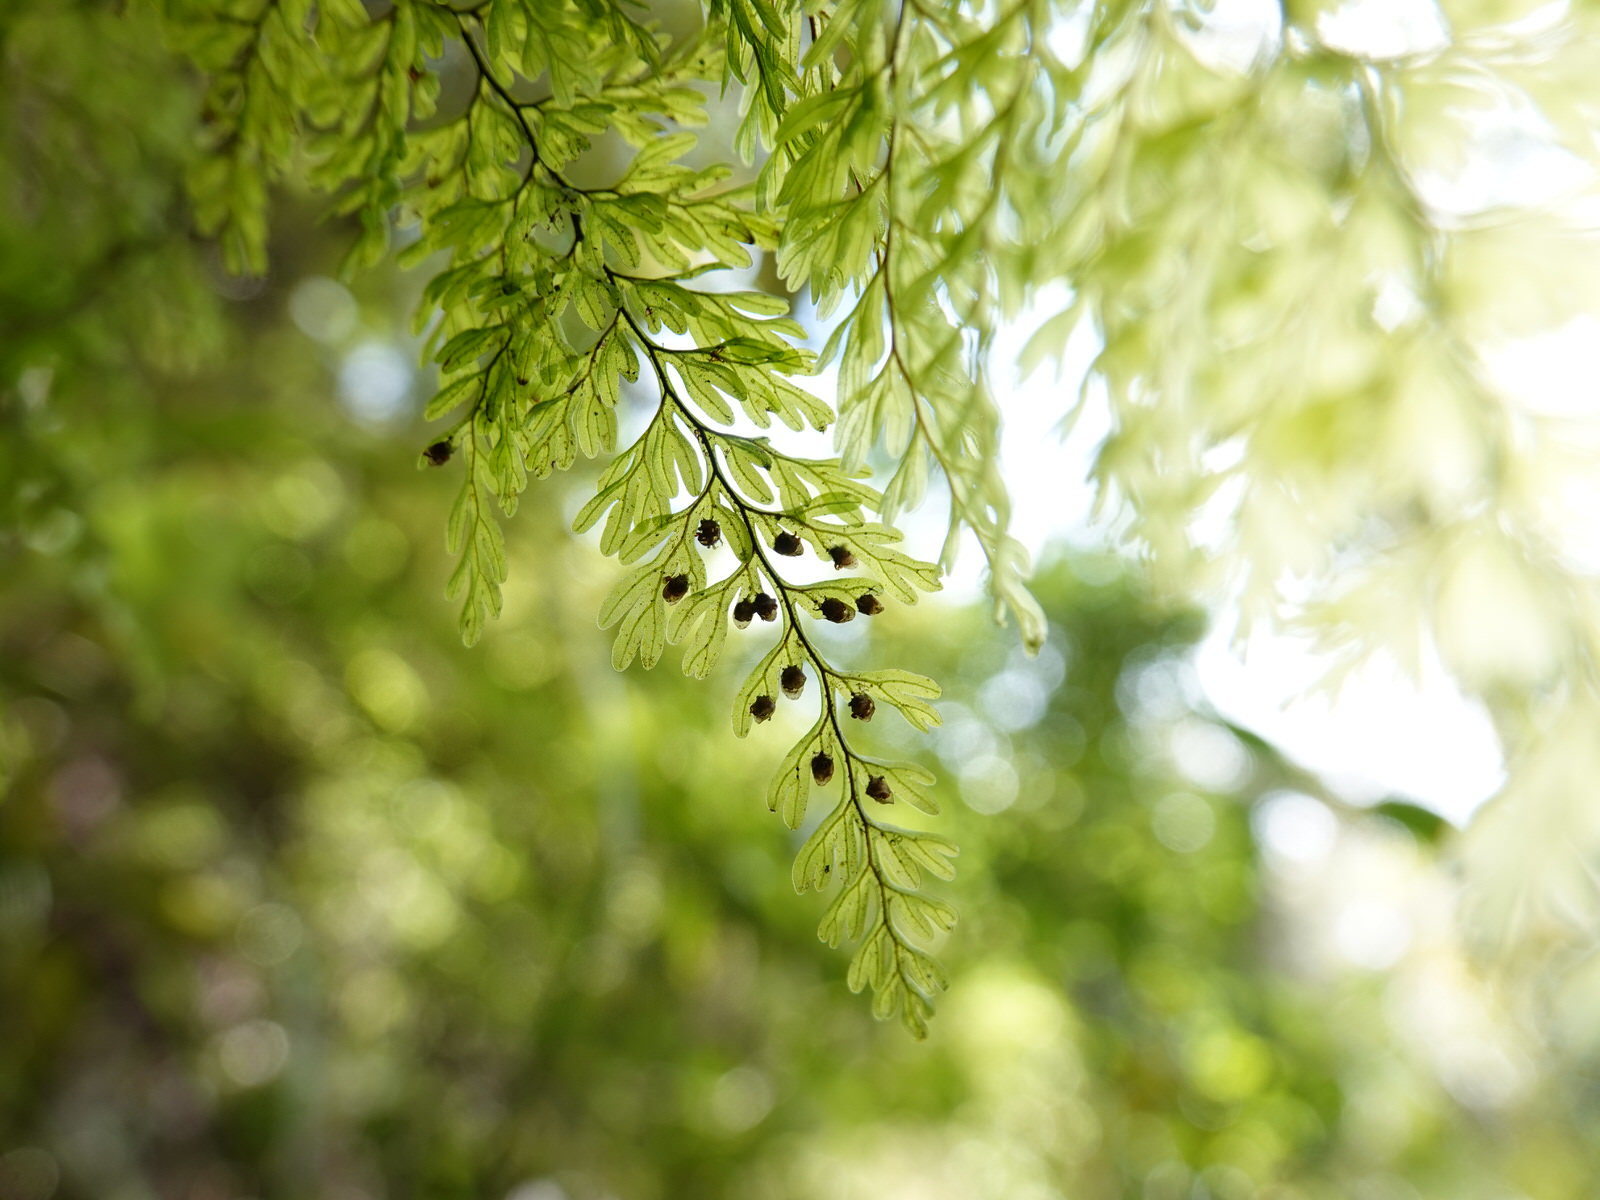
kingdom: Plantae
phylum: Tracheophyta
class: Polypodiopsida
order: Hymenophyllales
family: Hymenophyllaceae
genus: Hymenophyllum
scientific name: Hymenophyllum sanguinolentum
